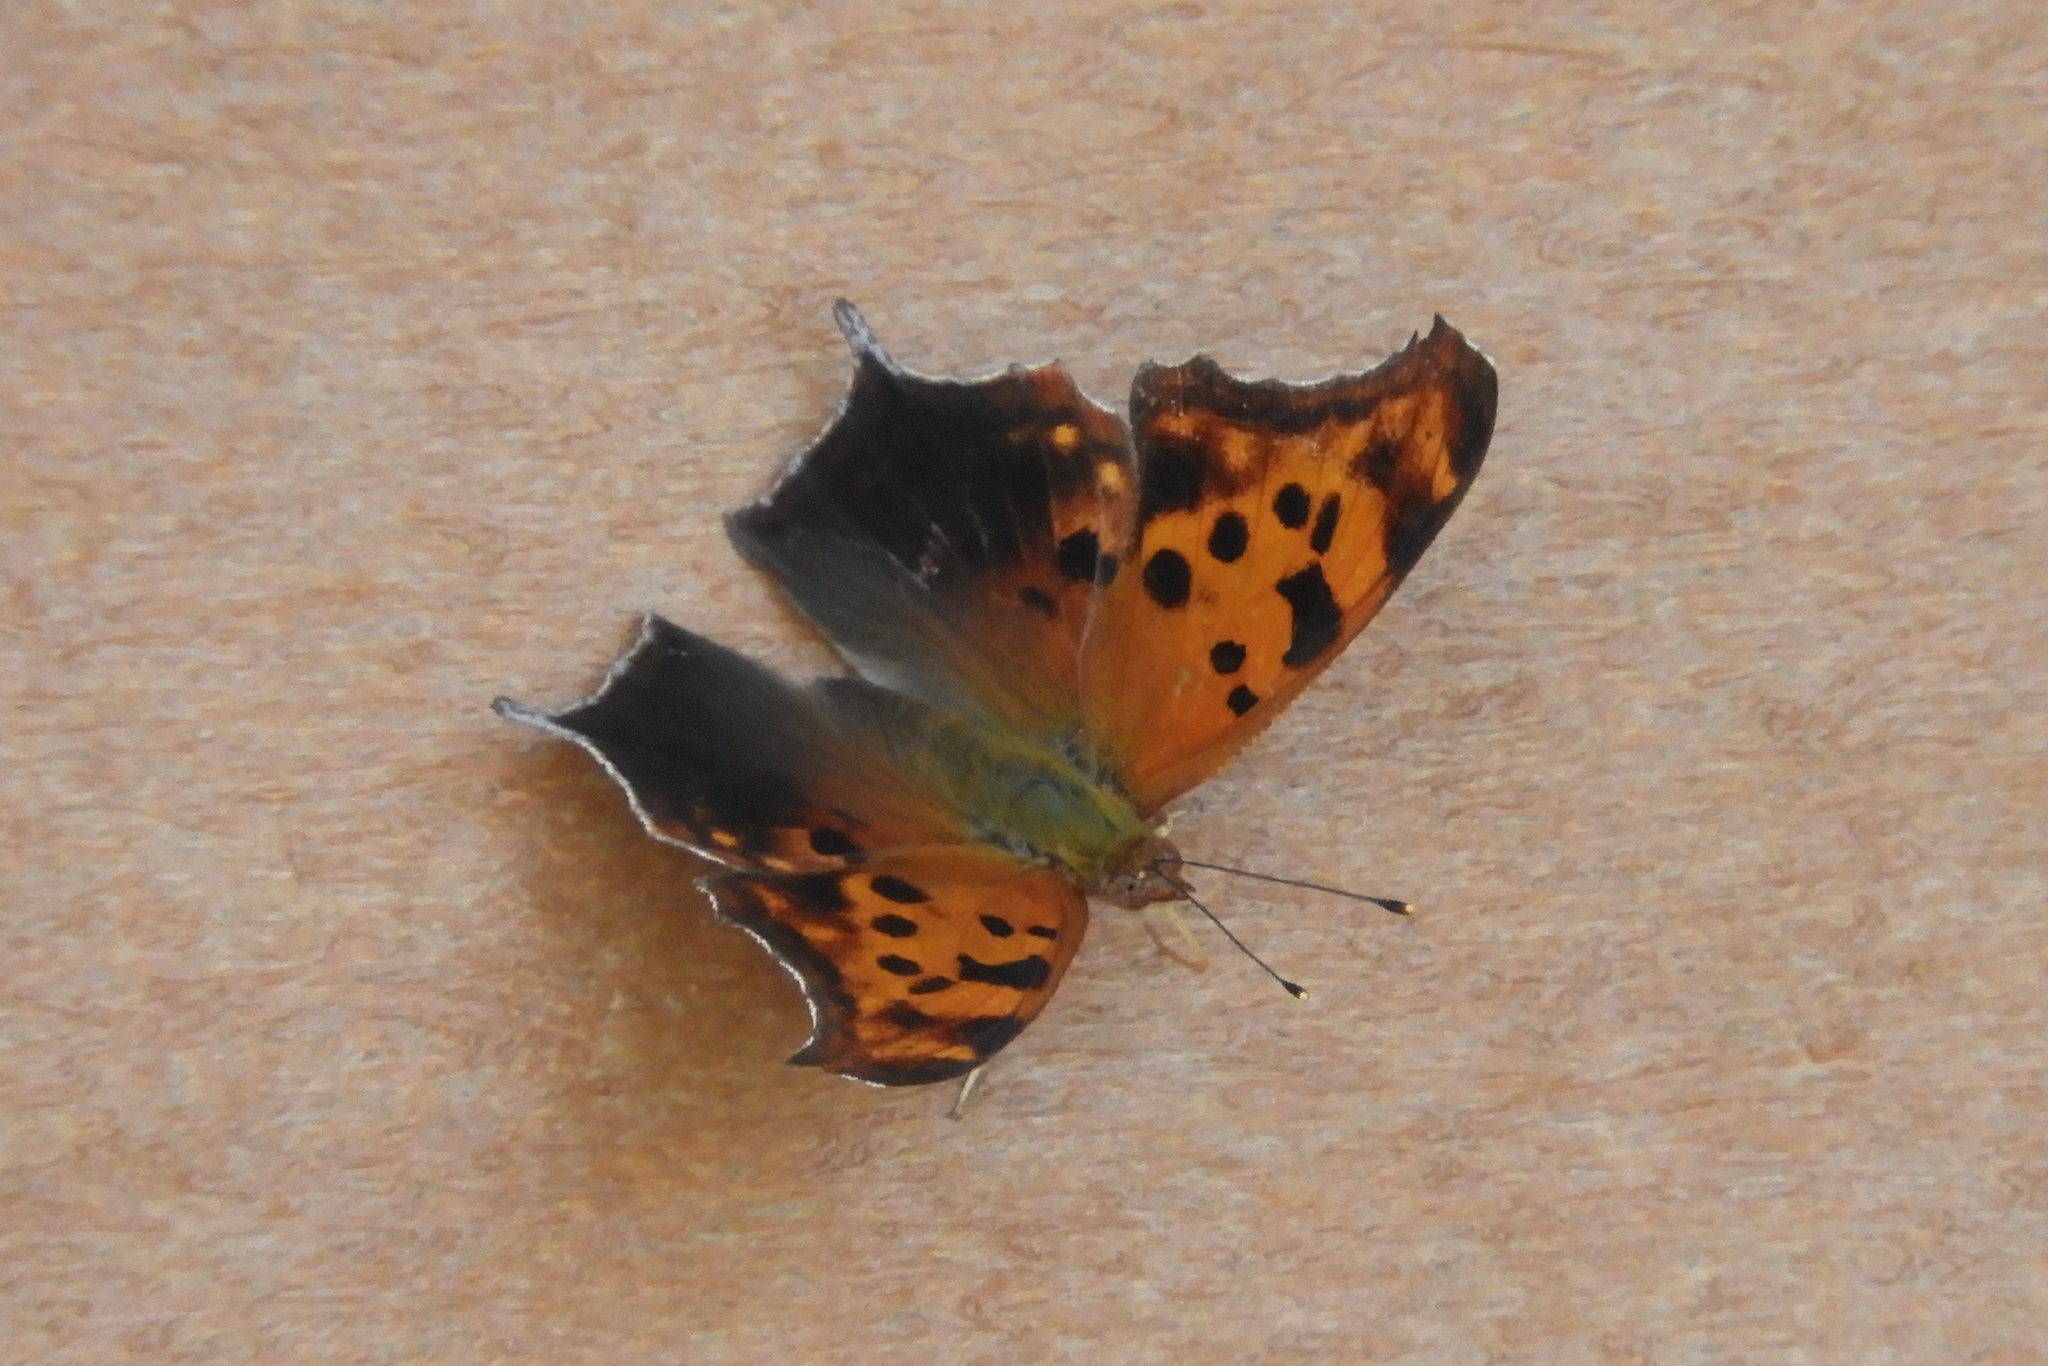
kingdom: Animalia
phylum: Arthropoda
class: Insecta
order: Lepidoptera
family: Nymphalidae
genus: Polygonia
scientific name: Polygonia interrogationis
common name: Question mark
